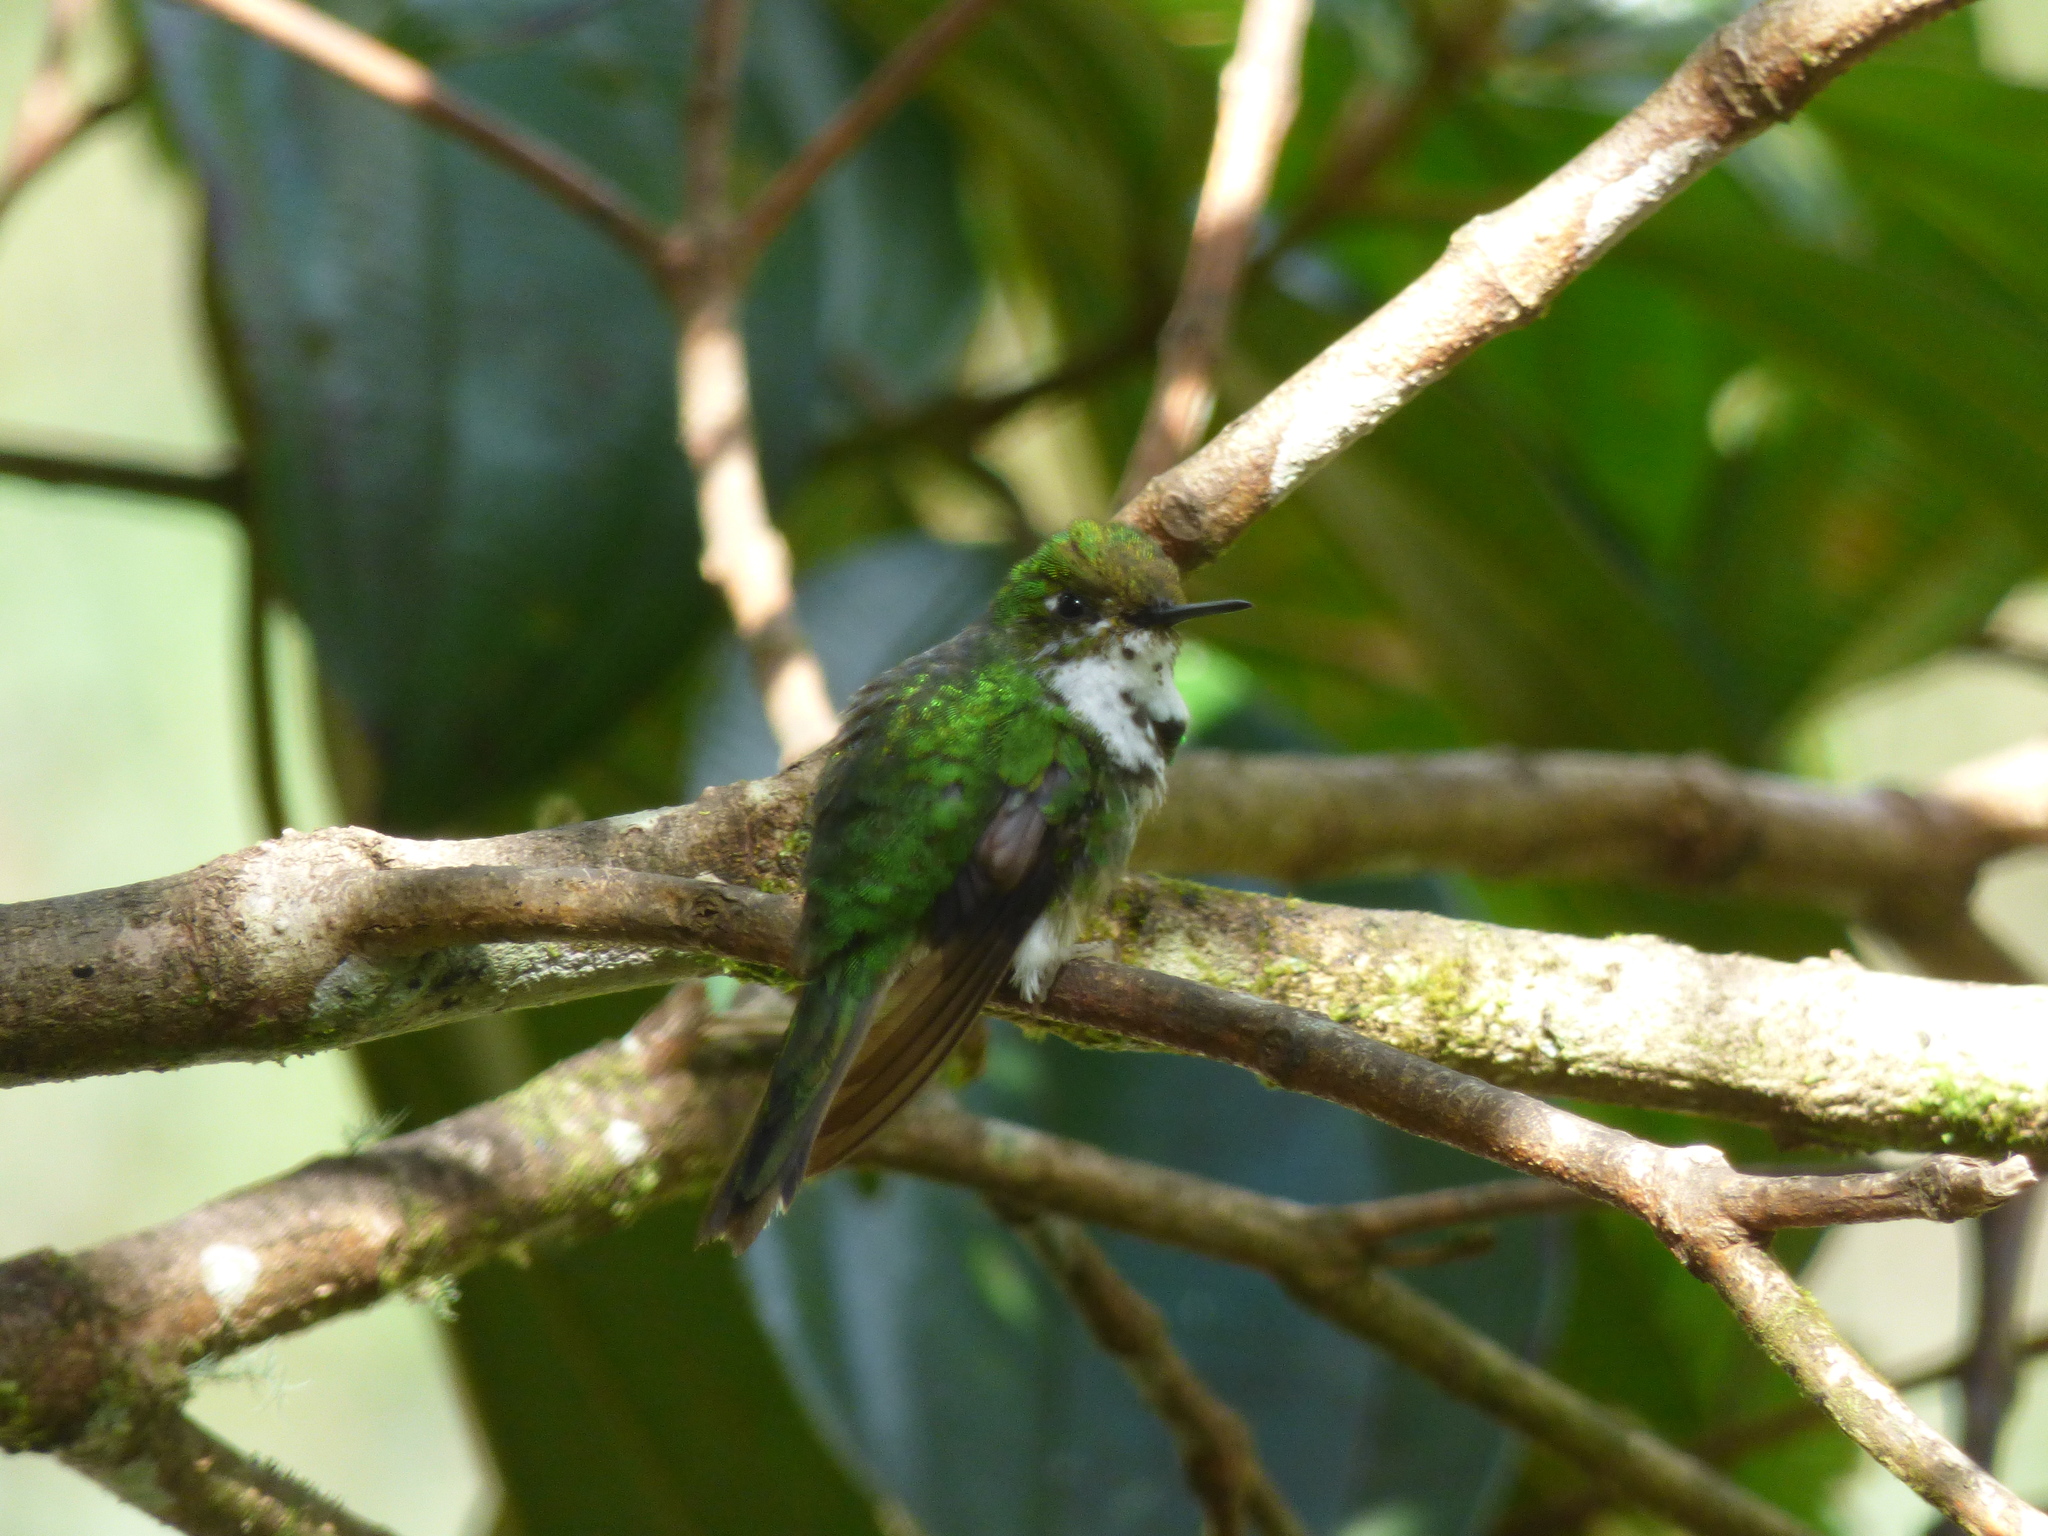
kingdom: Animalia
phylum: Chordata
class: Aves
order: Apodiformes
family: Trochilidae
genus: Chlorostilbon
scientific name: Chlorostilbon melanorhynchus
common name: Western emerald
